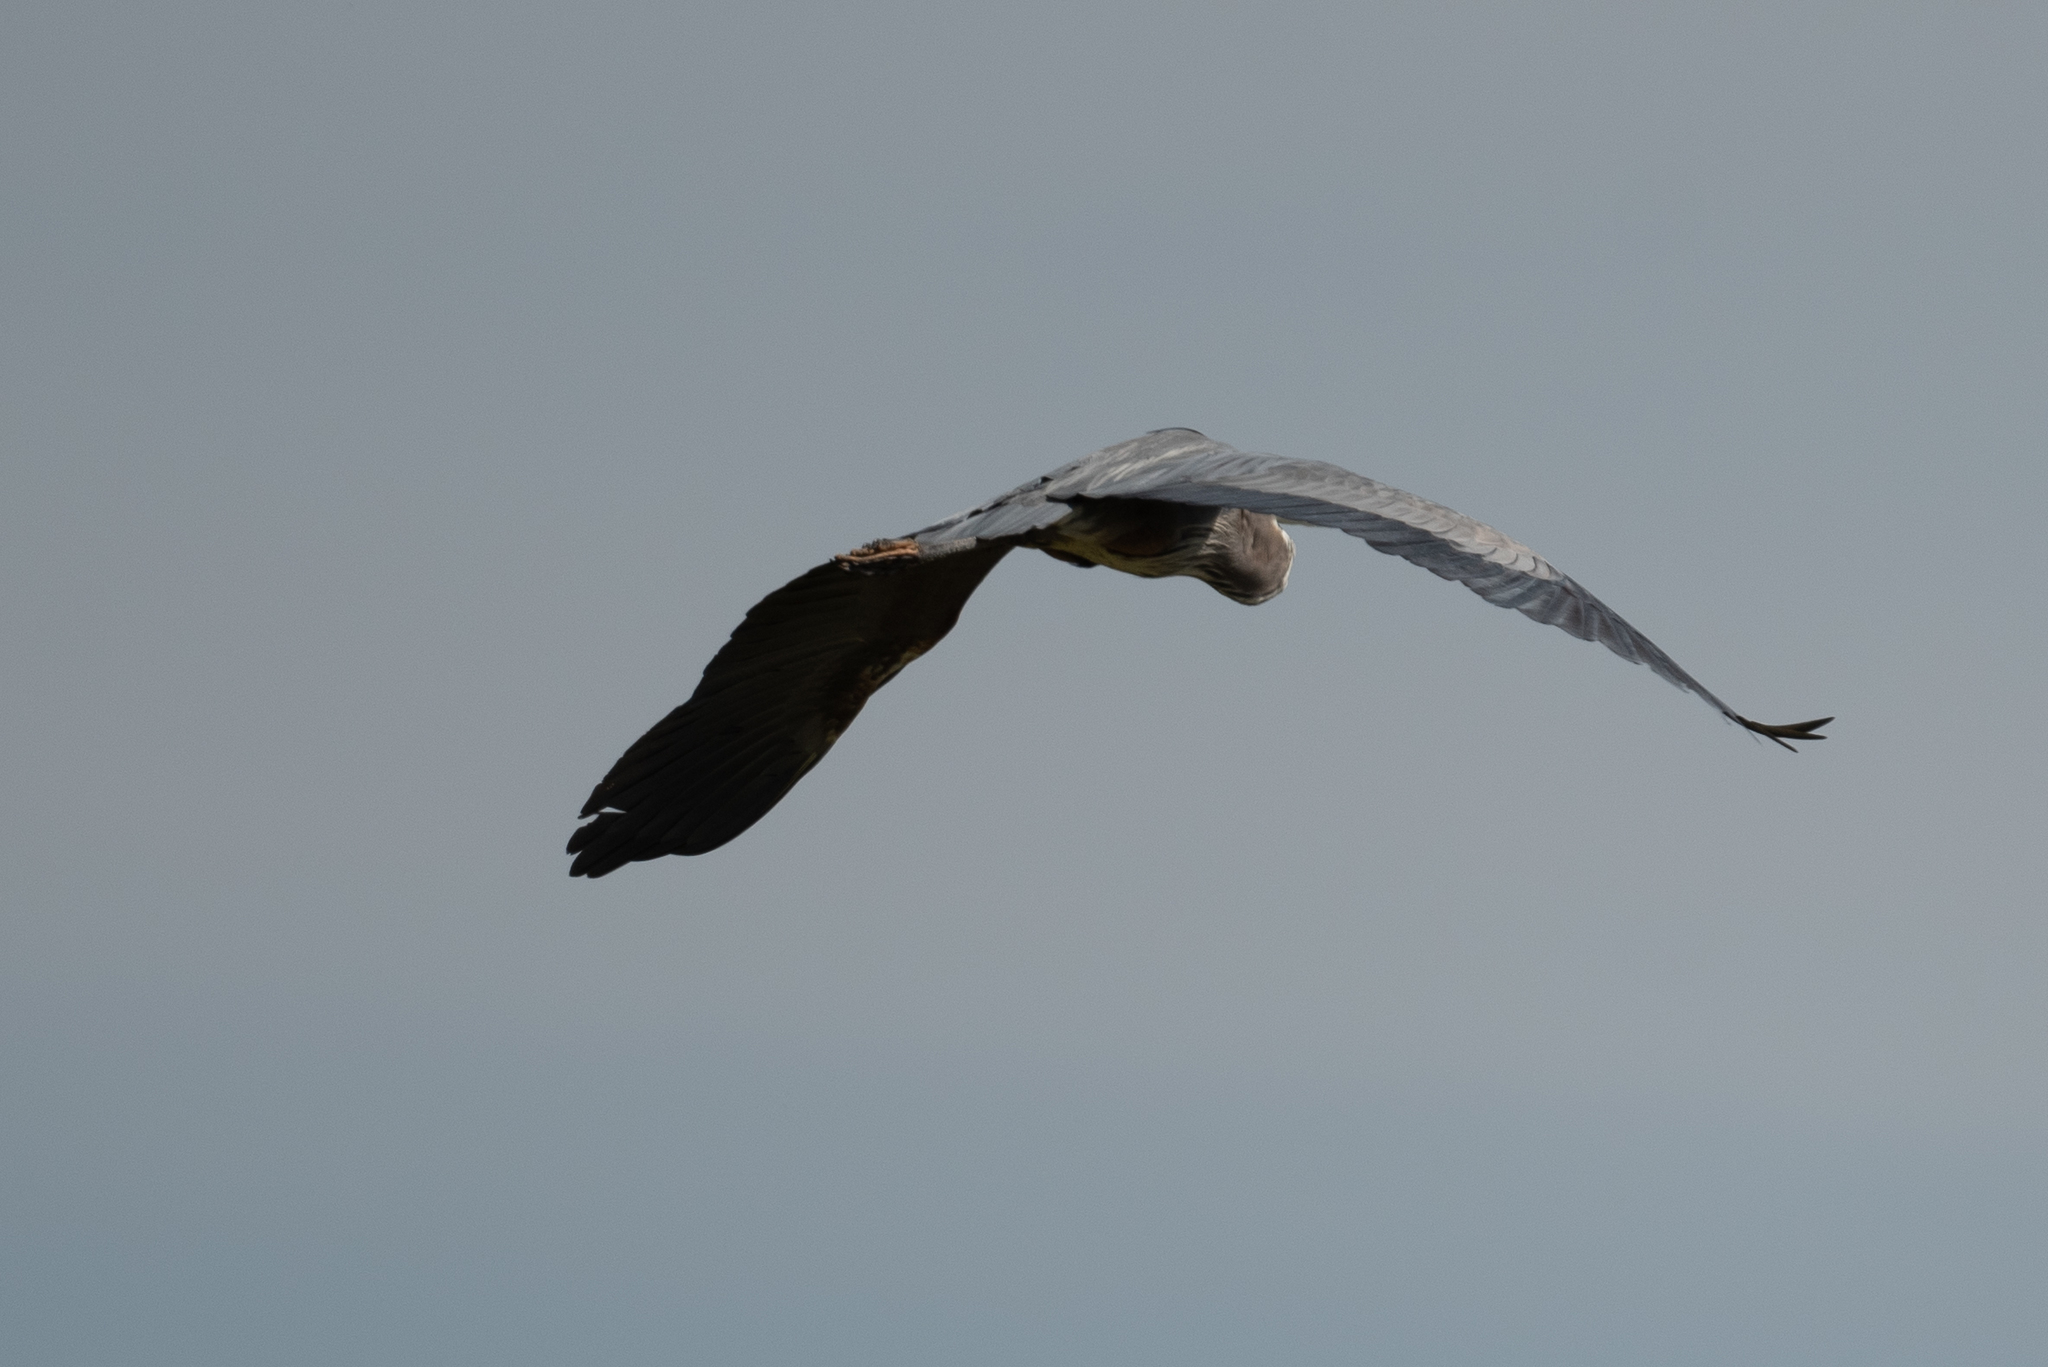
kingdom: Animalia
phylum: Chordata
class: Aves
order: Pelecaniformes
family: Ardeidae
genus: Ardea
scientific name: Ardea herodias
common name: Great blue heron
